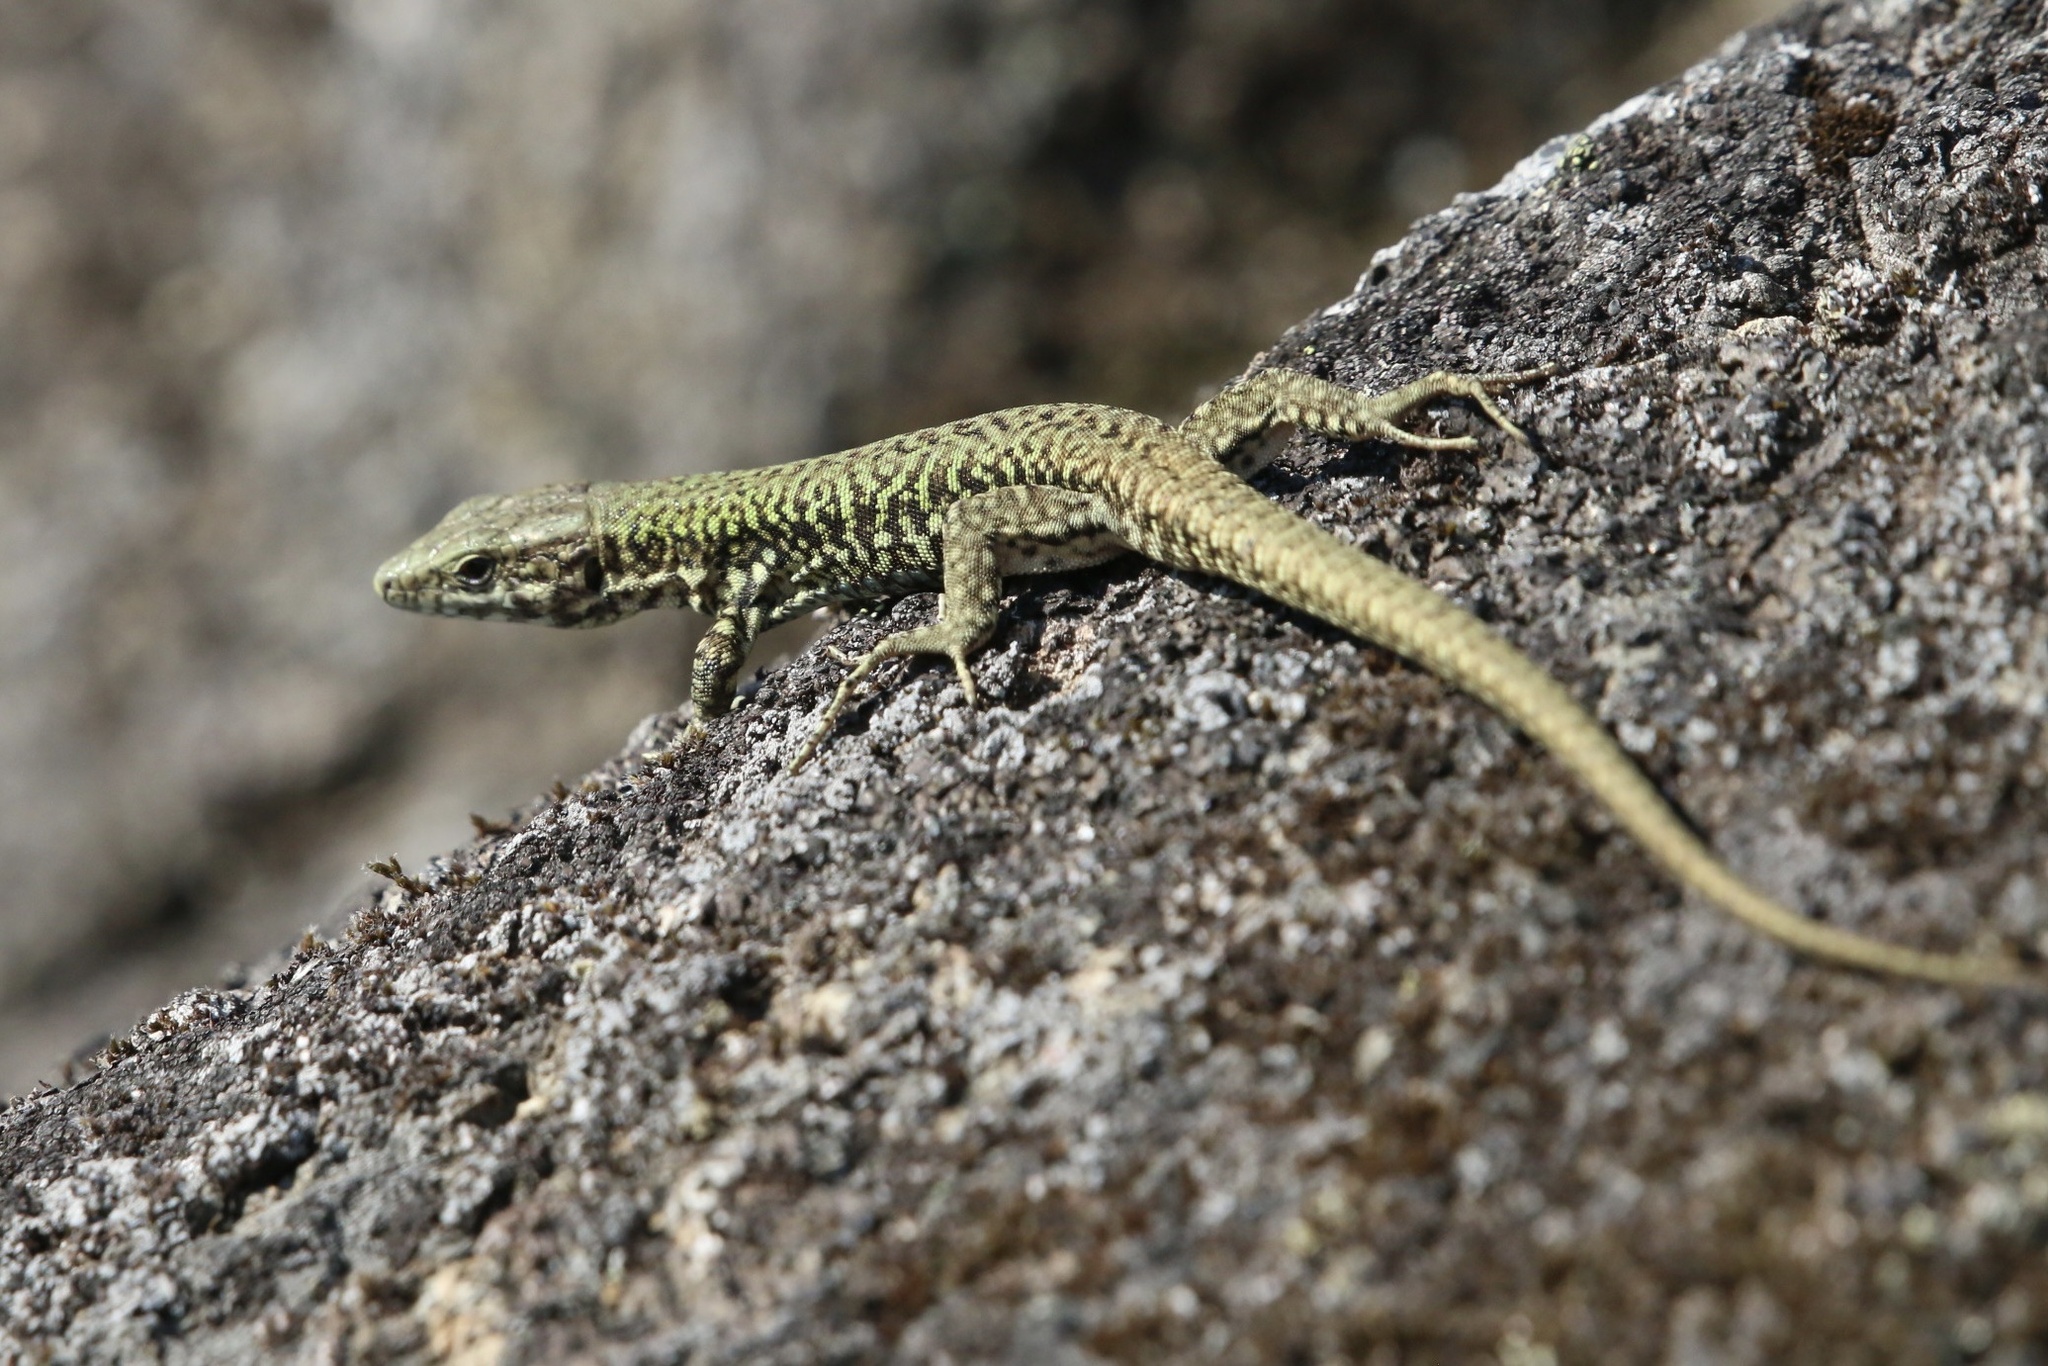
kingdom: Animalia
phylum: Chordata
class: Squamata
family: Lacertidae
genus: Podarcis
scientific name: Podarcis muralis
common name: Common wall lizard
